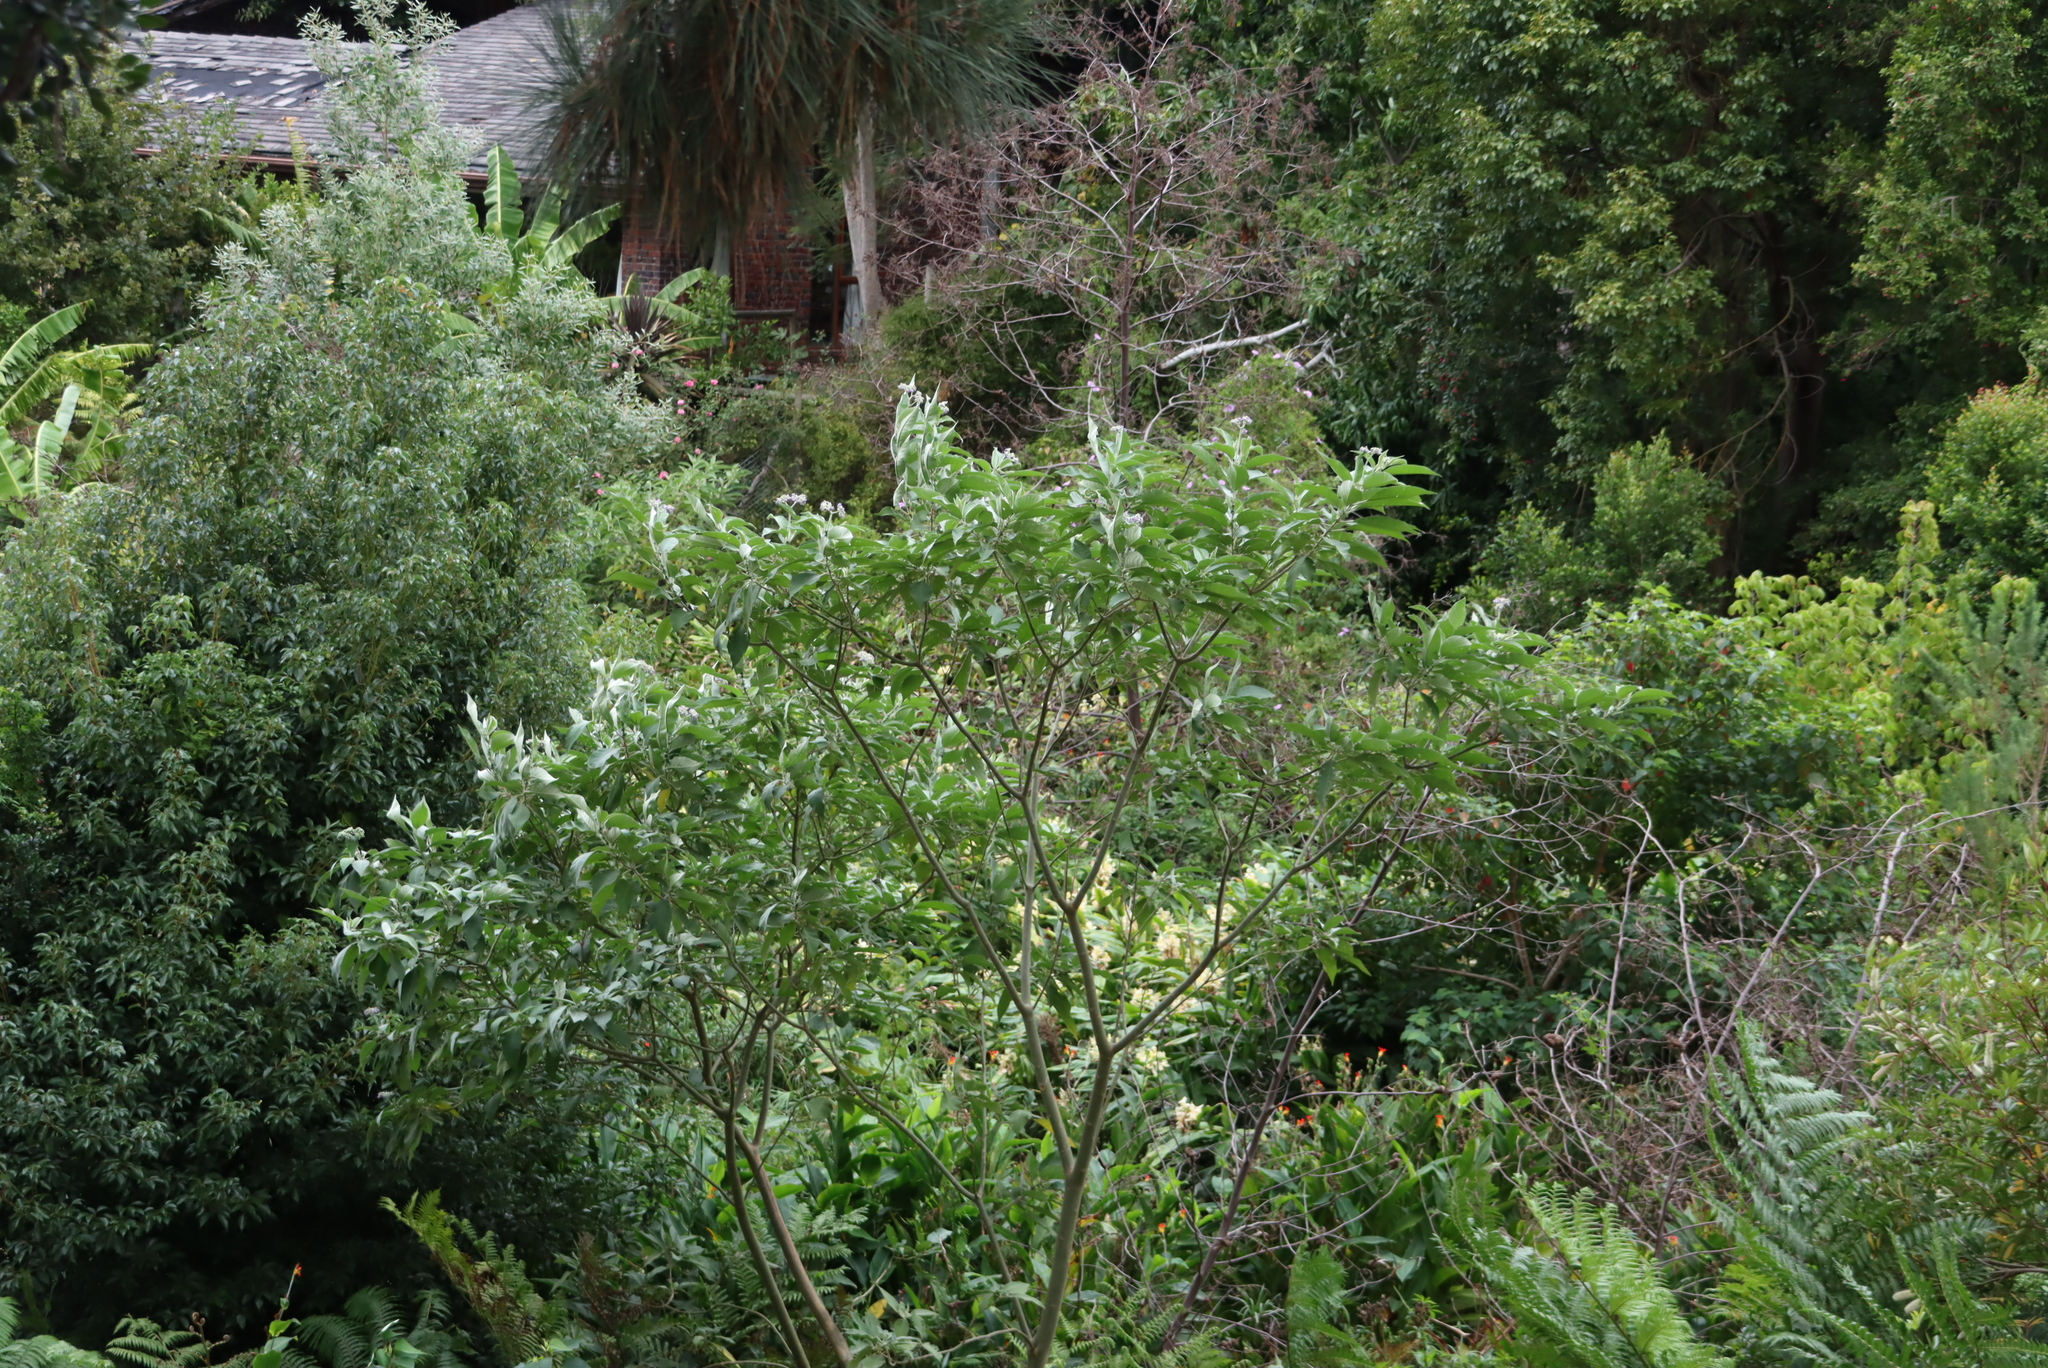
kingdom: Plantae
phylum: Tracheophyta
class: Magnoliopsida
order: Solanales
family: Solanaceae
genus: Solanum
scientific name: Solanum mauritianum
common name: Earleaf nightshade
